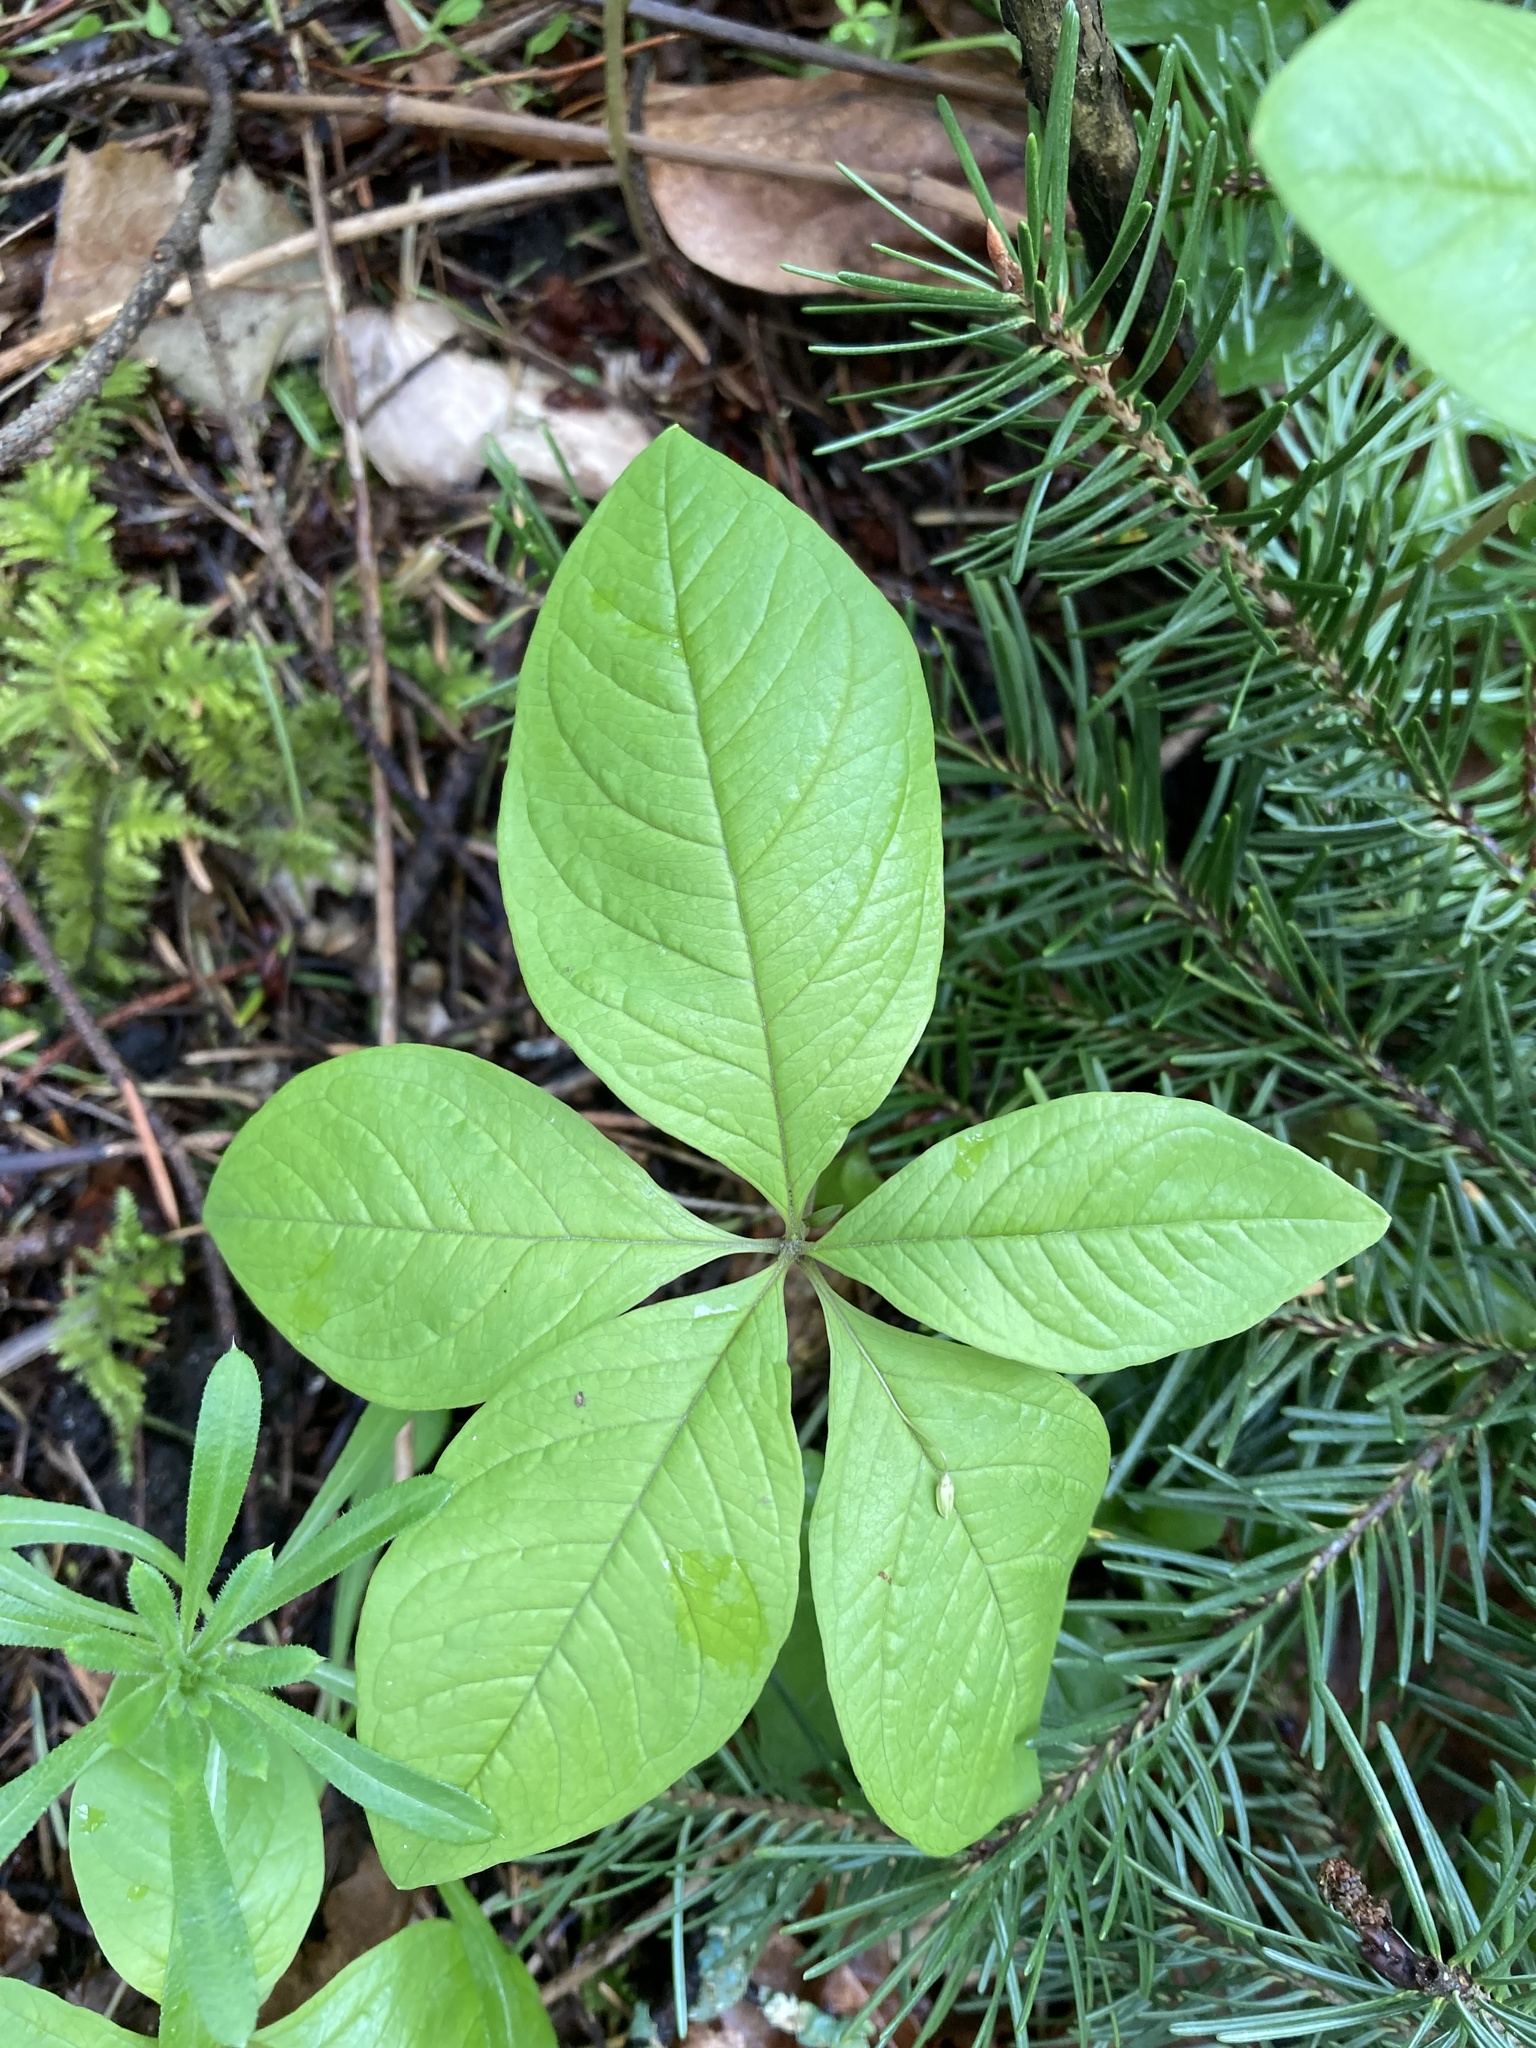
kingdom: Plantae
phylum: Tracheophyta
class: Magnoliopsida
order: Ericales
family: Primulaceae
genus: Lysimachia
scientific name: Lysimachia latifolia
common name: Pacific starflower
